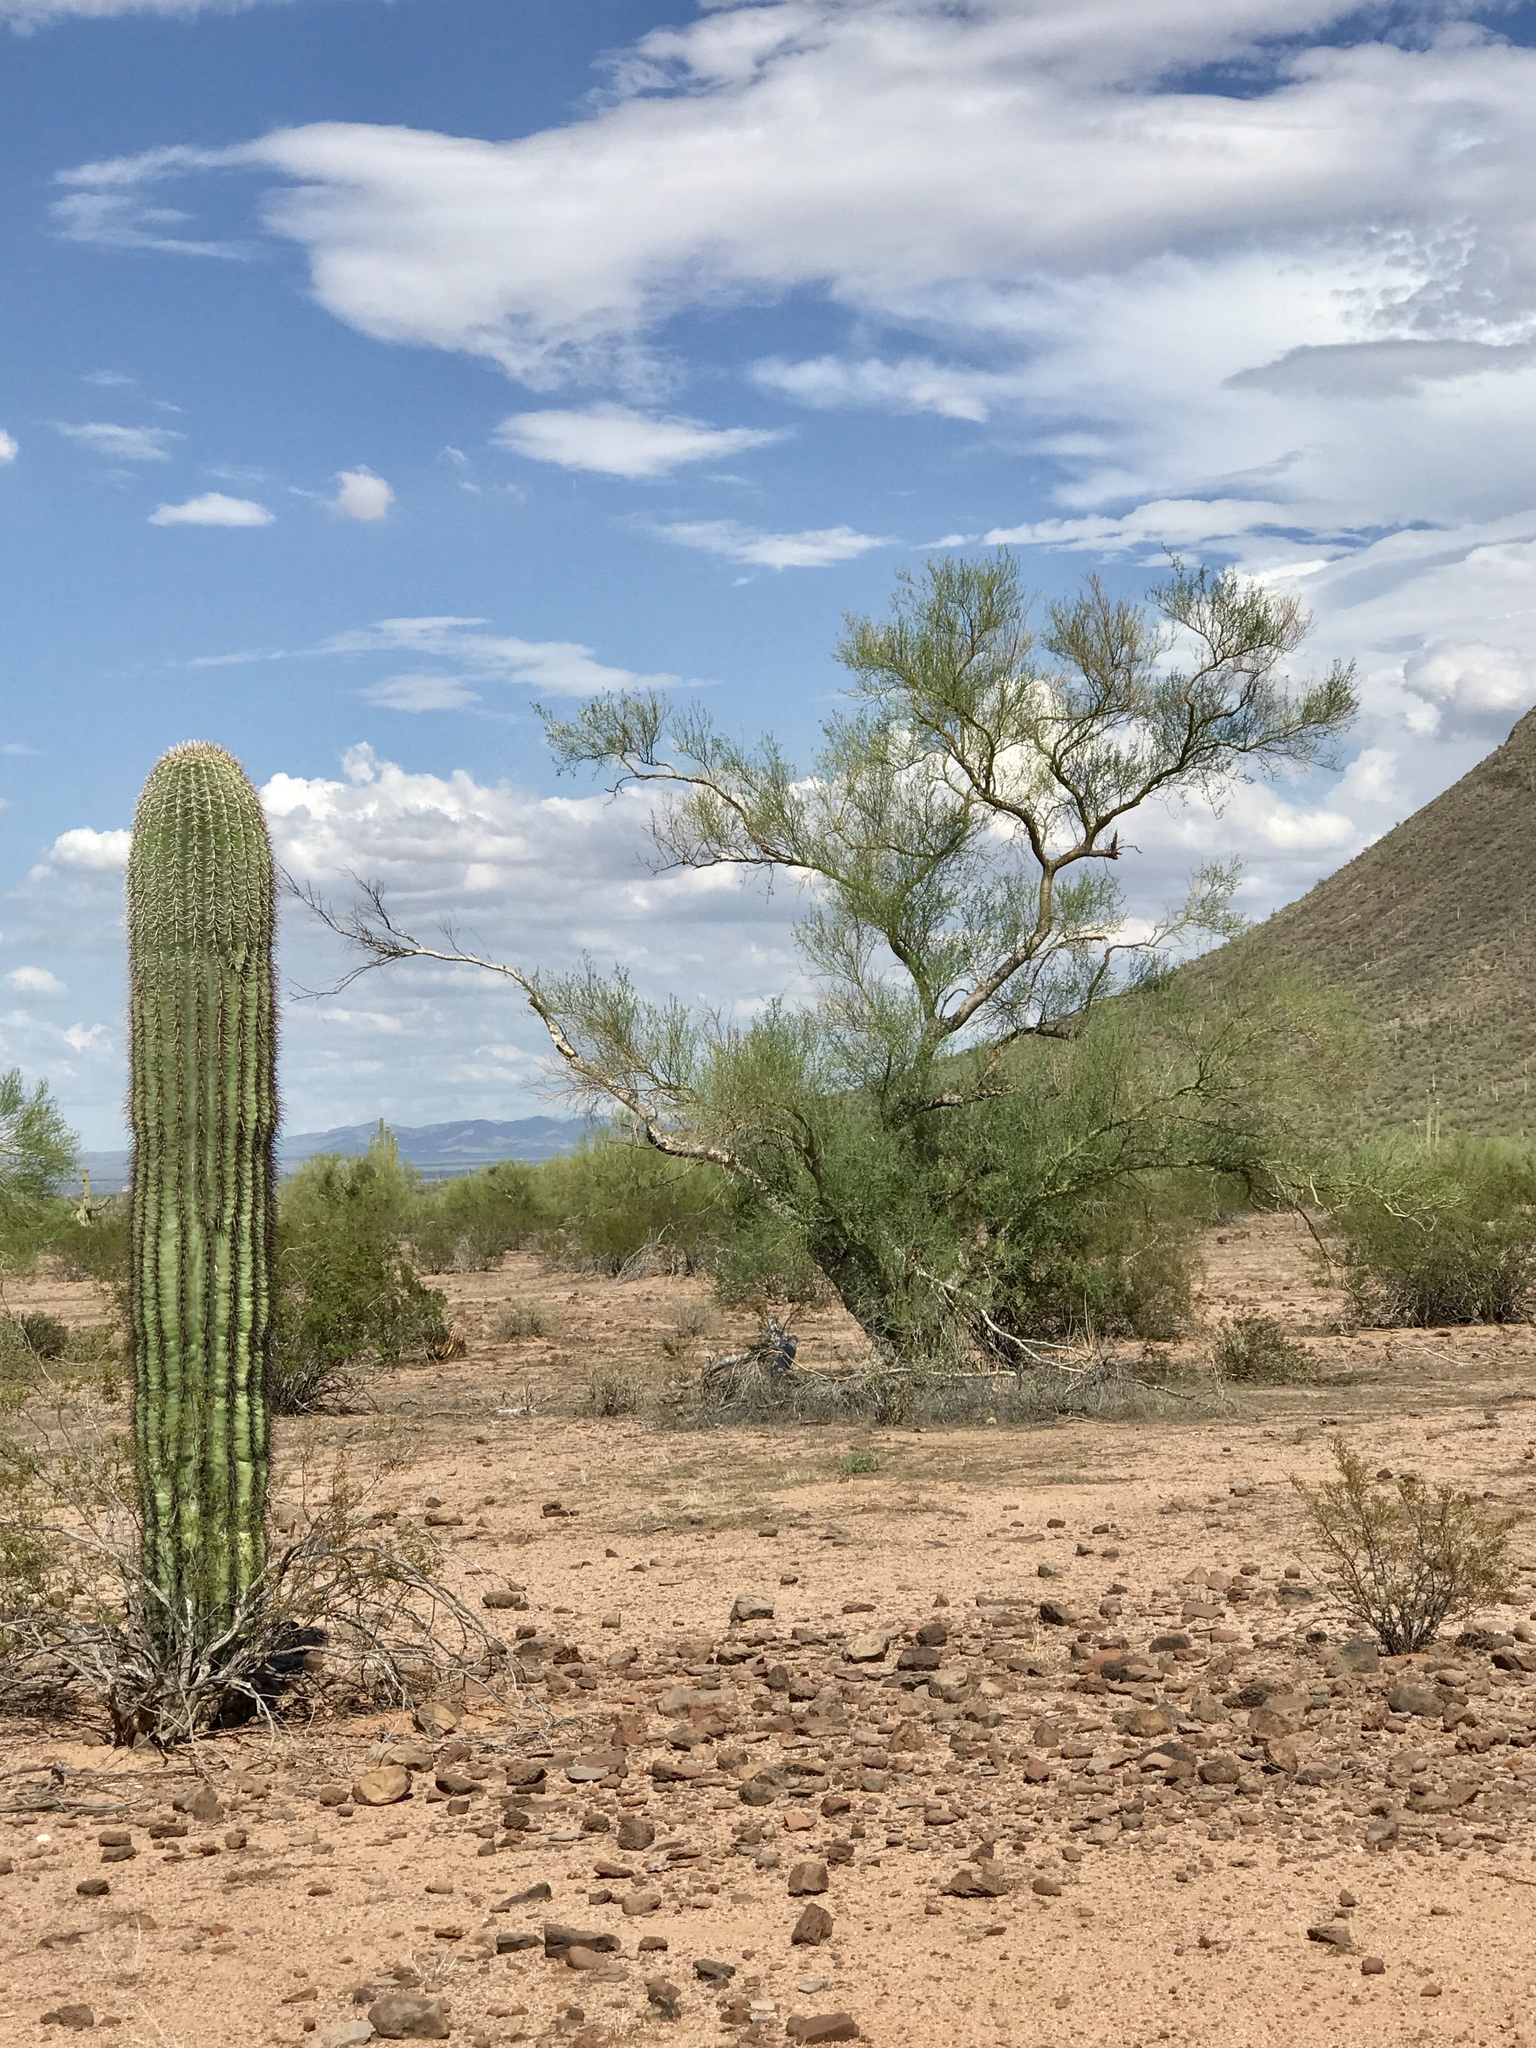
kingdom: Plantae
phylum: Tracheophyta
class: Magnoliopsida
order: Fabales
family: Fabaceae
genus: Parkinsonia
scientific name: Parkinsonia microphylla
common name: Yellow paloverde
